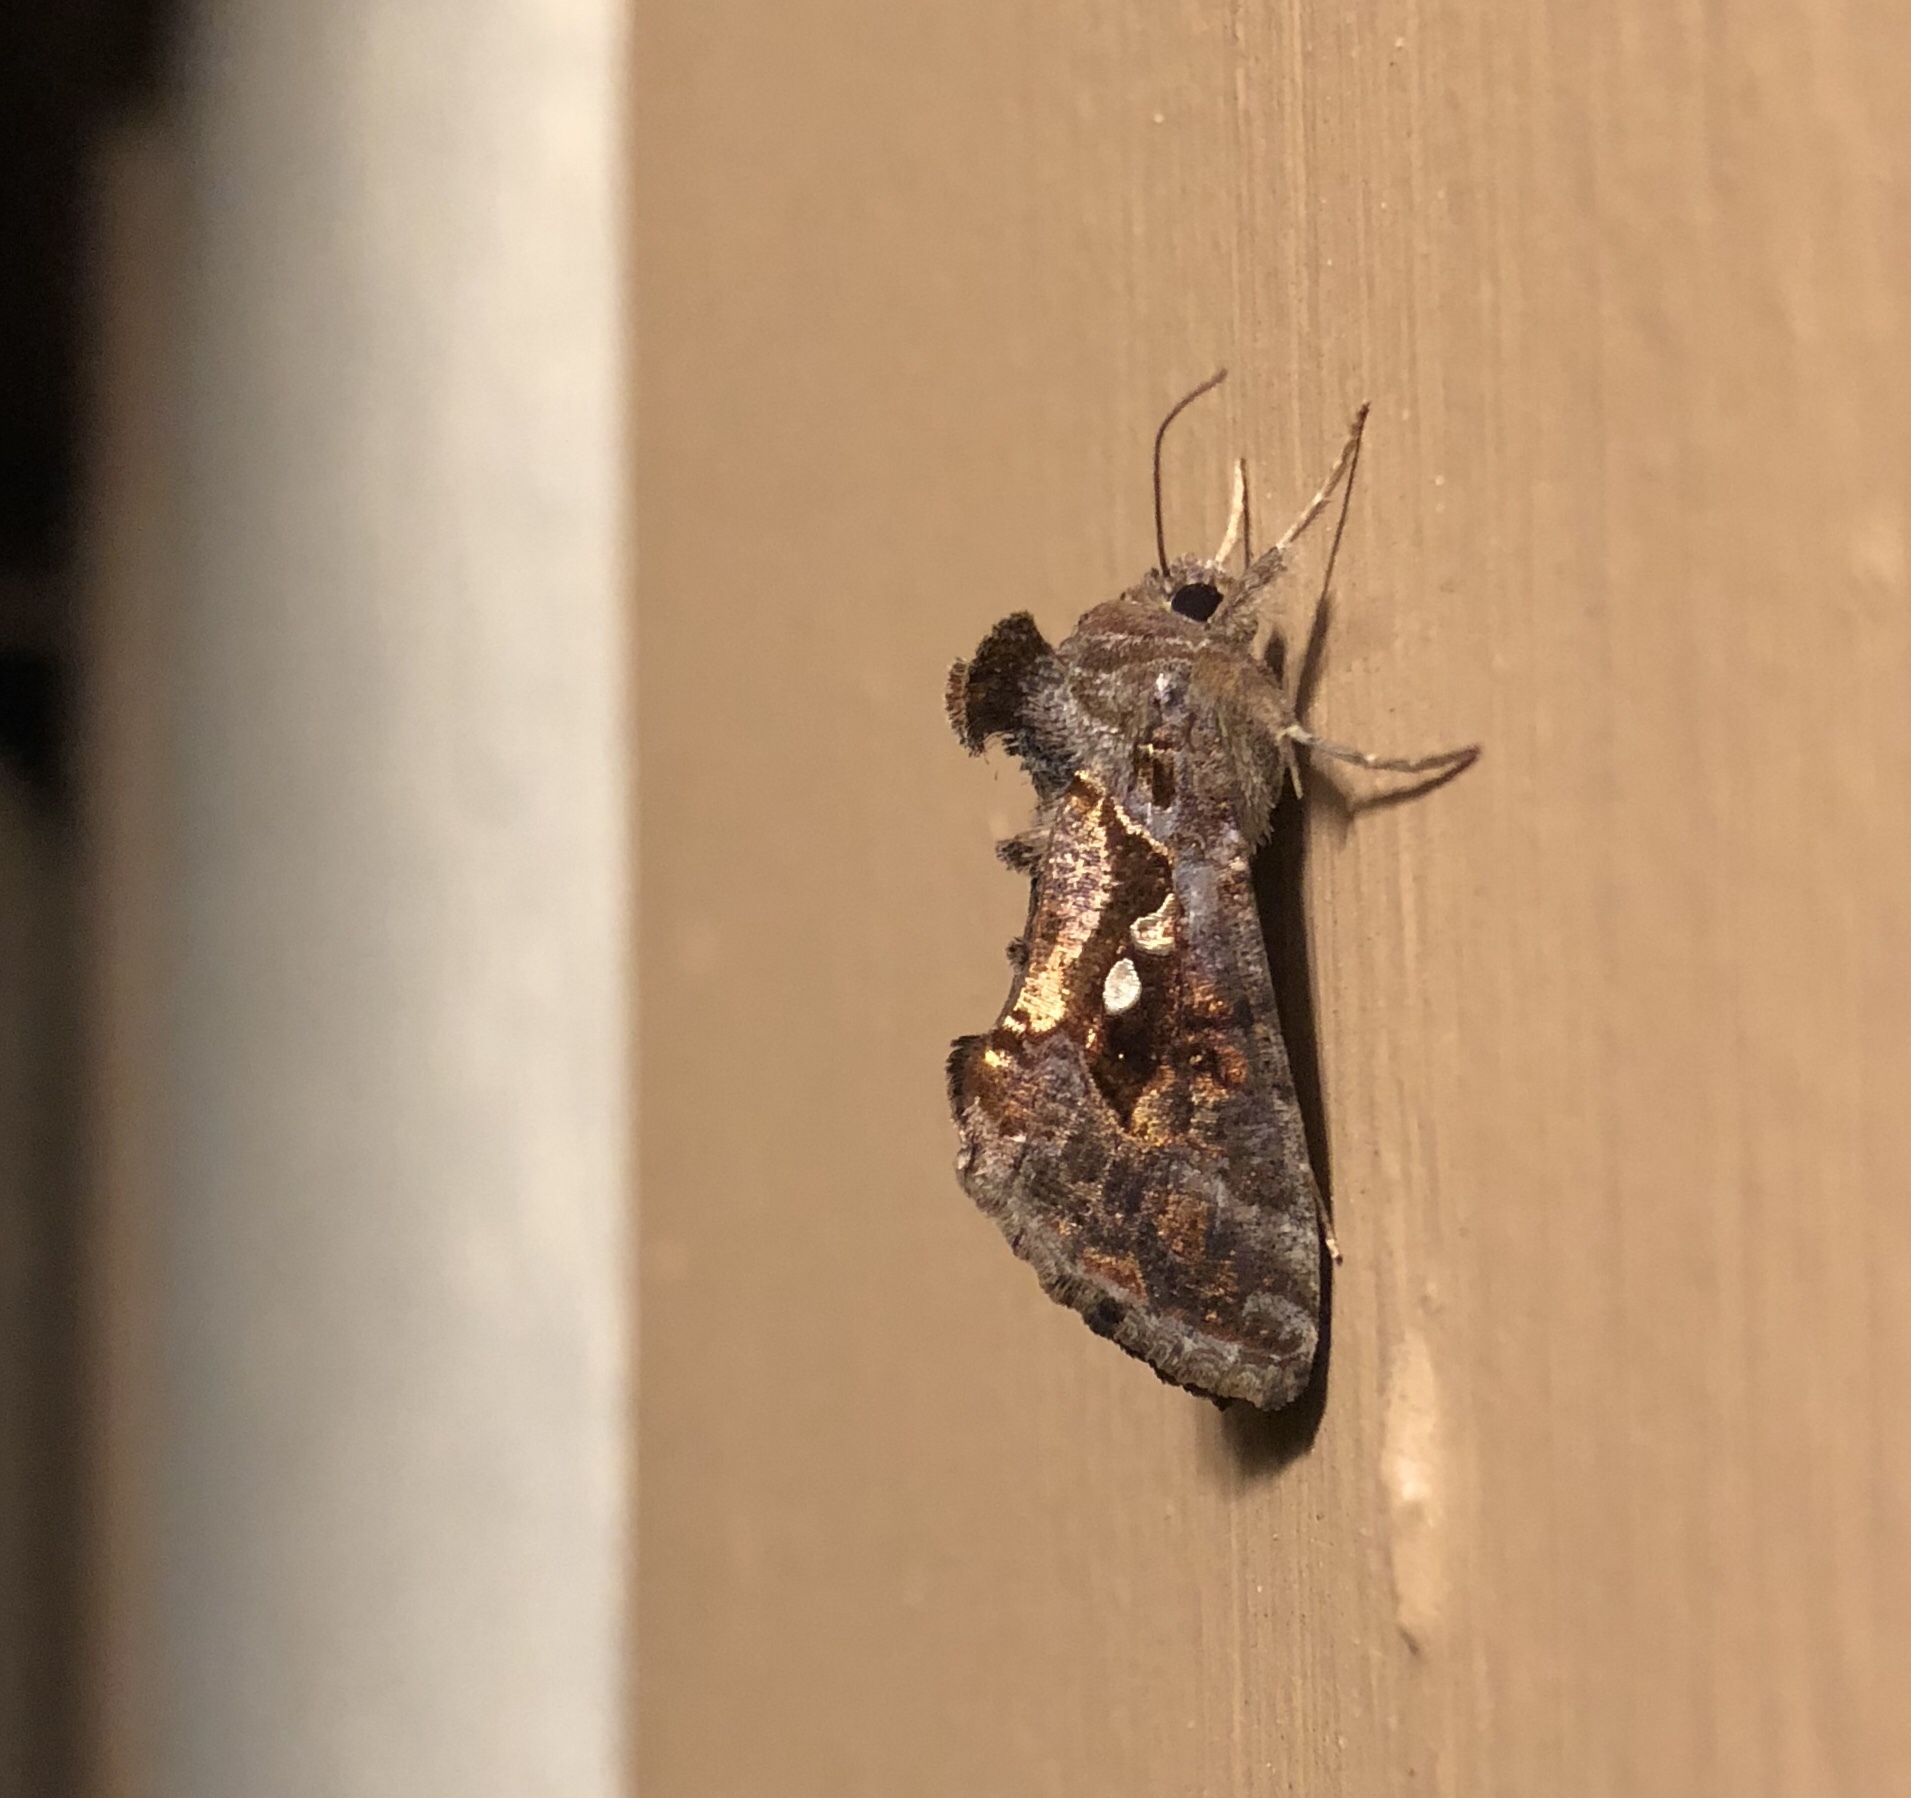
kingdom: Animalia
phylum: Arthropoda
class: Insecta
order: Lepidoptera
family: Noctuidae
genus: Chrysodeixis
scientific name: Chrysodeixis includens
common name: Cutworm moth
